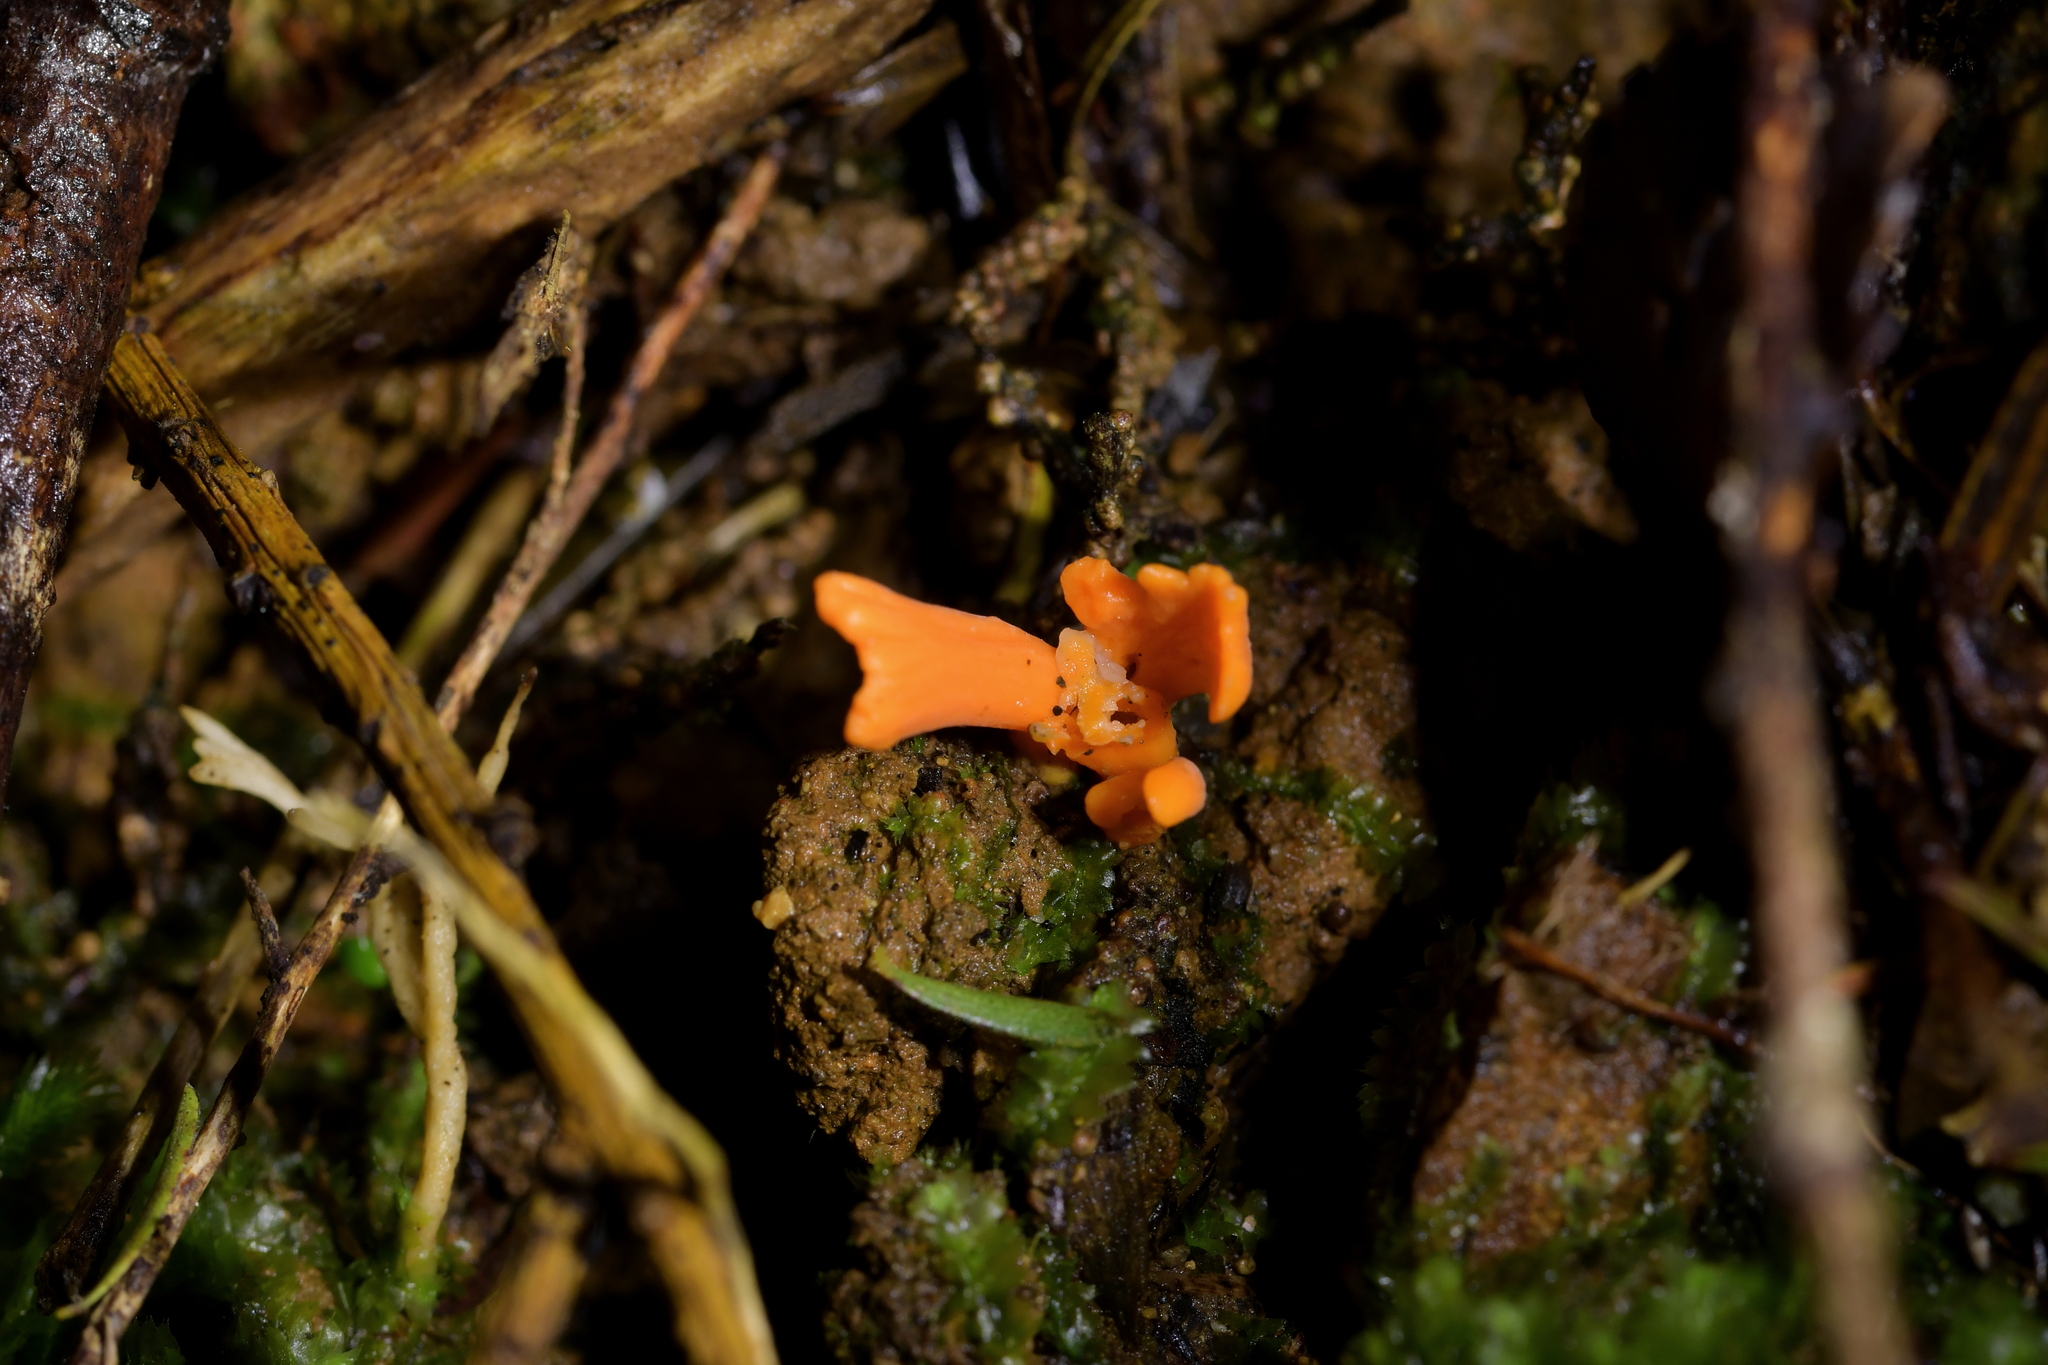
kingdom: Fungi
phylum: Basidiomycota
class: Agaricomycetes
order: Agaricales
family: Clavariaceae
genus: Clavulinopsis
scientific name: Clavulinopsis sulcata
